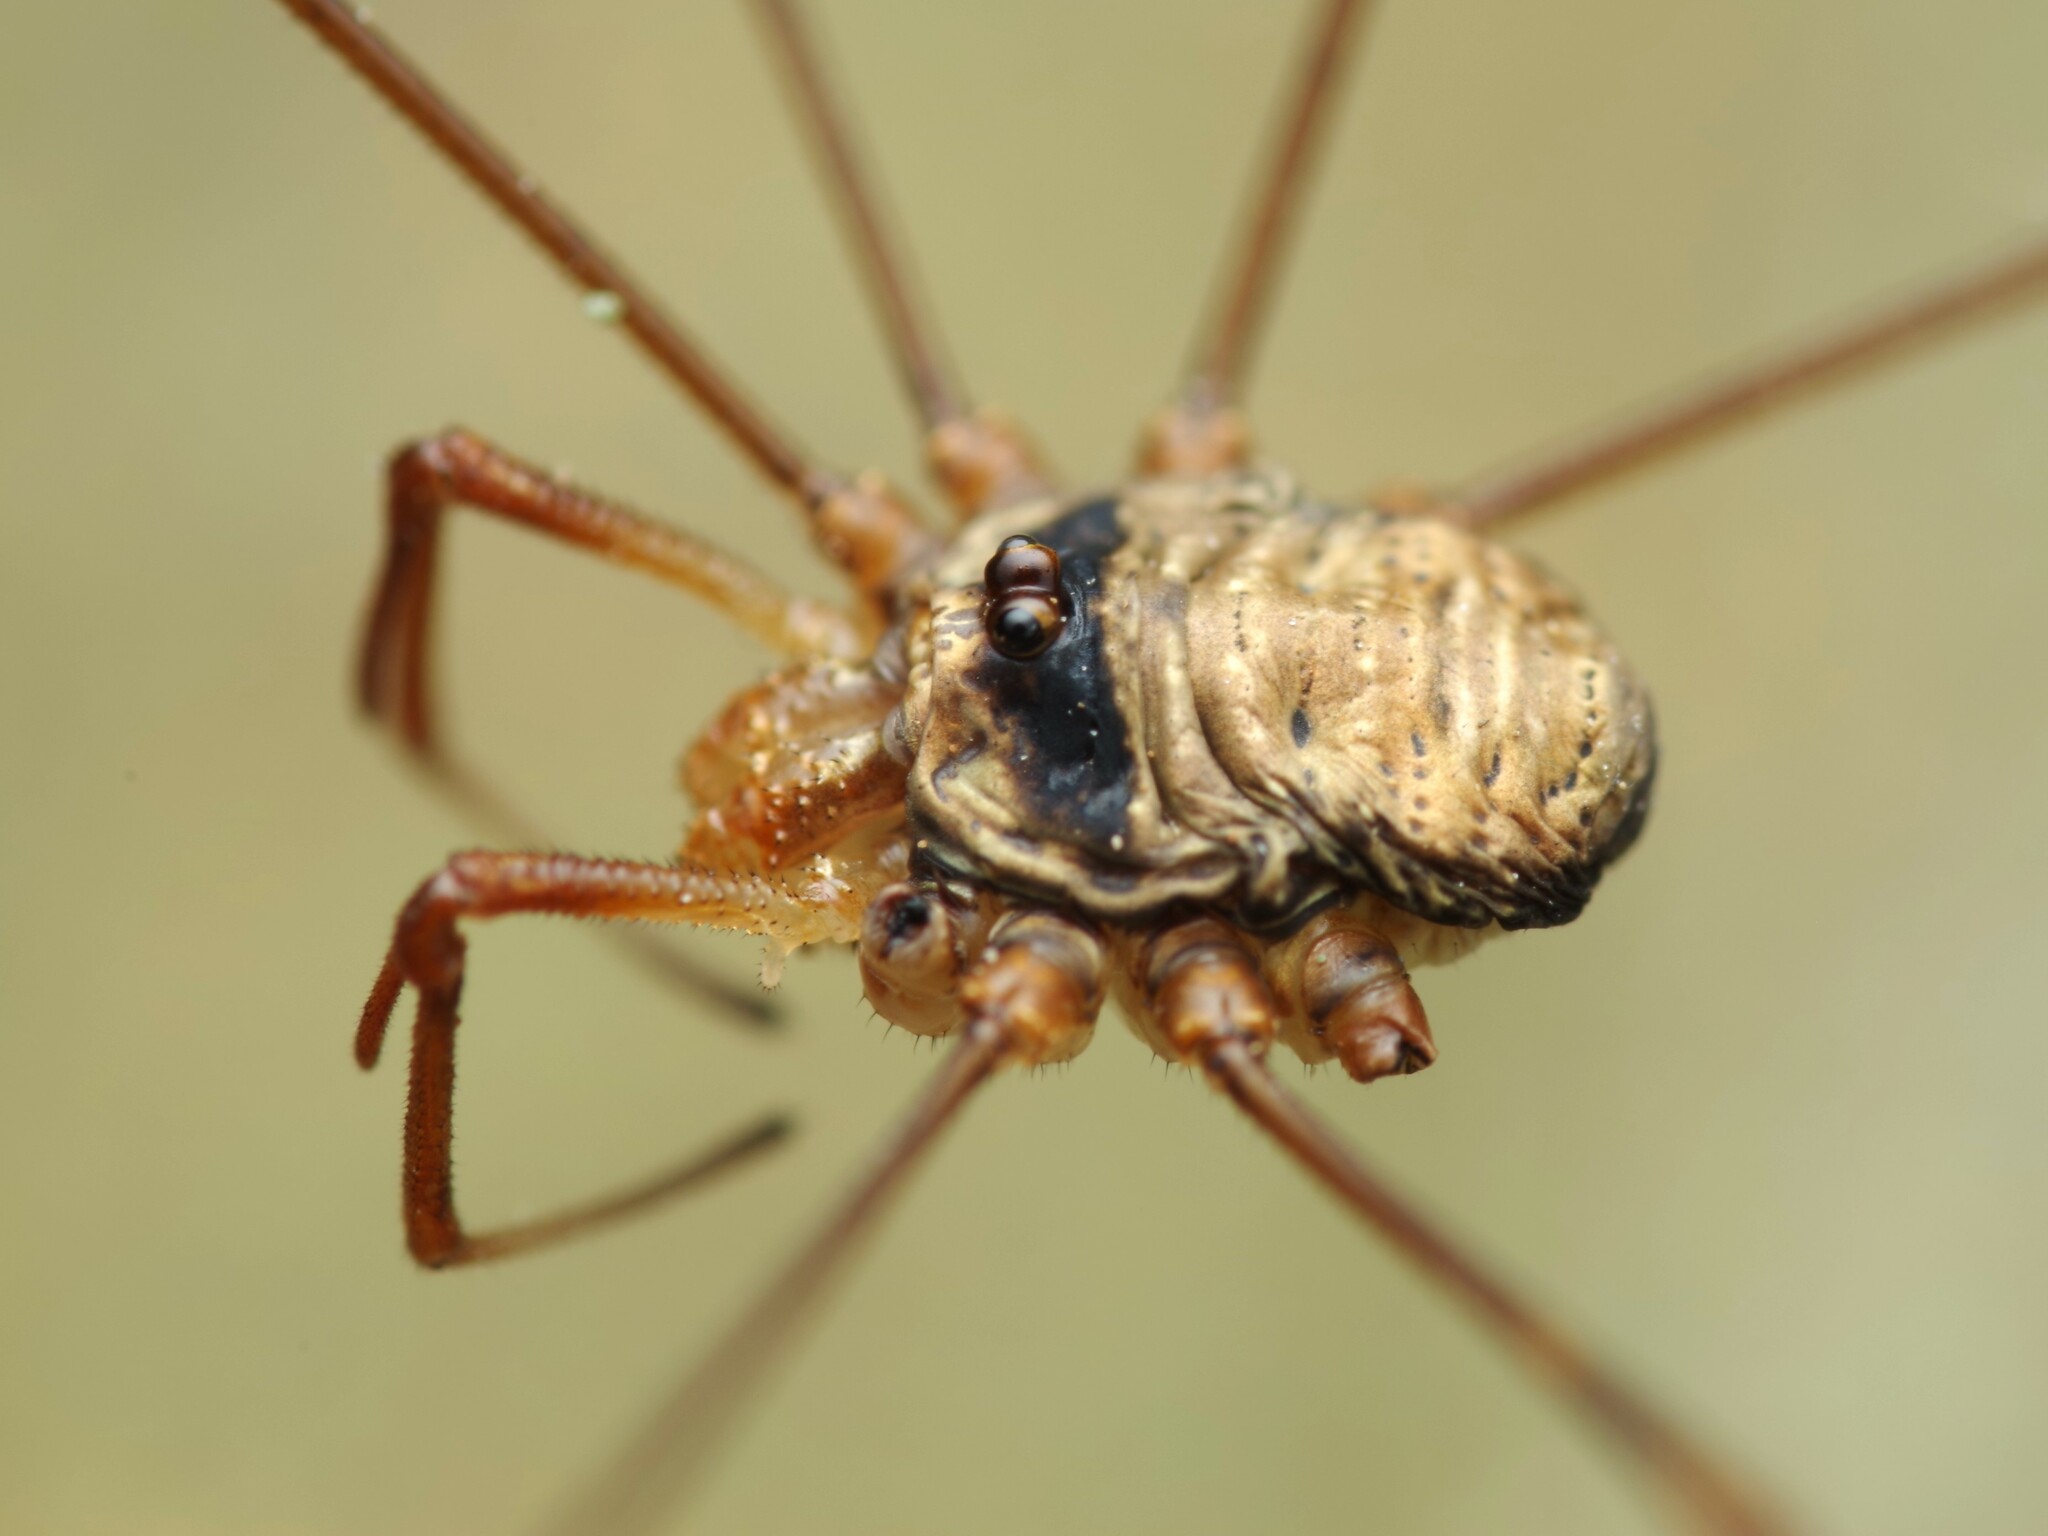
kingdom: Animalia
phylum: Arthropoda
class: Arachnida
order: Opiliones
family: Phalangiidae
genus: Dicranopalpus
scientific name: Dicranopalpus ramosus
